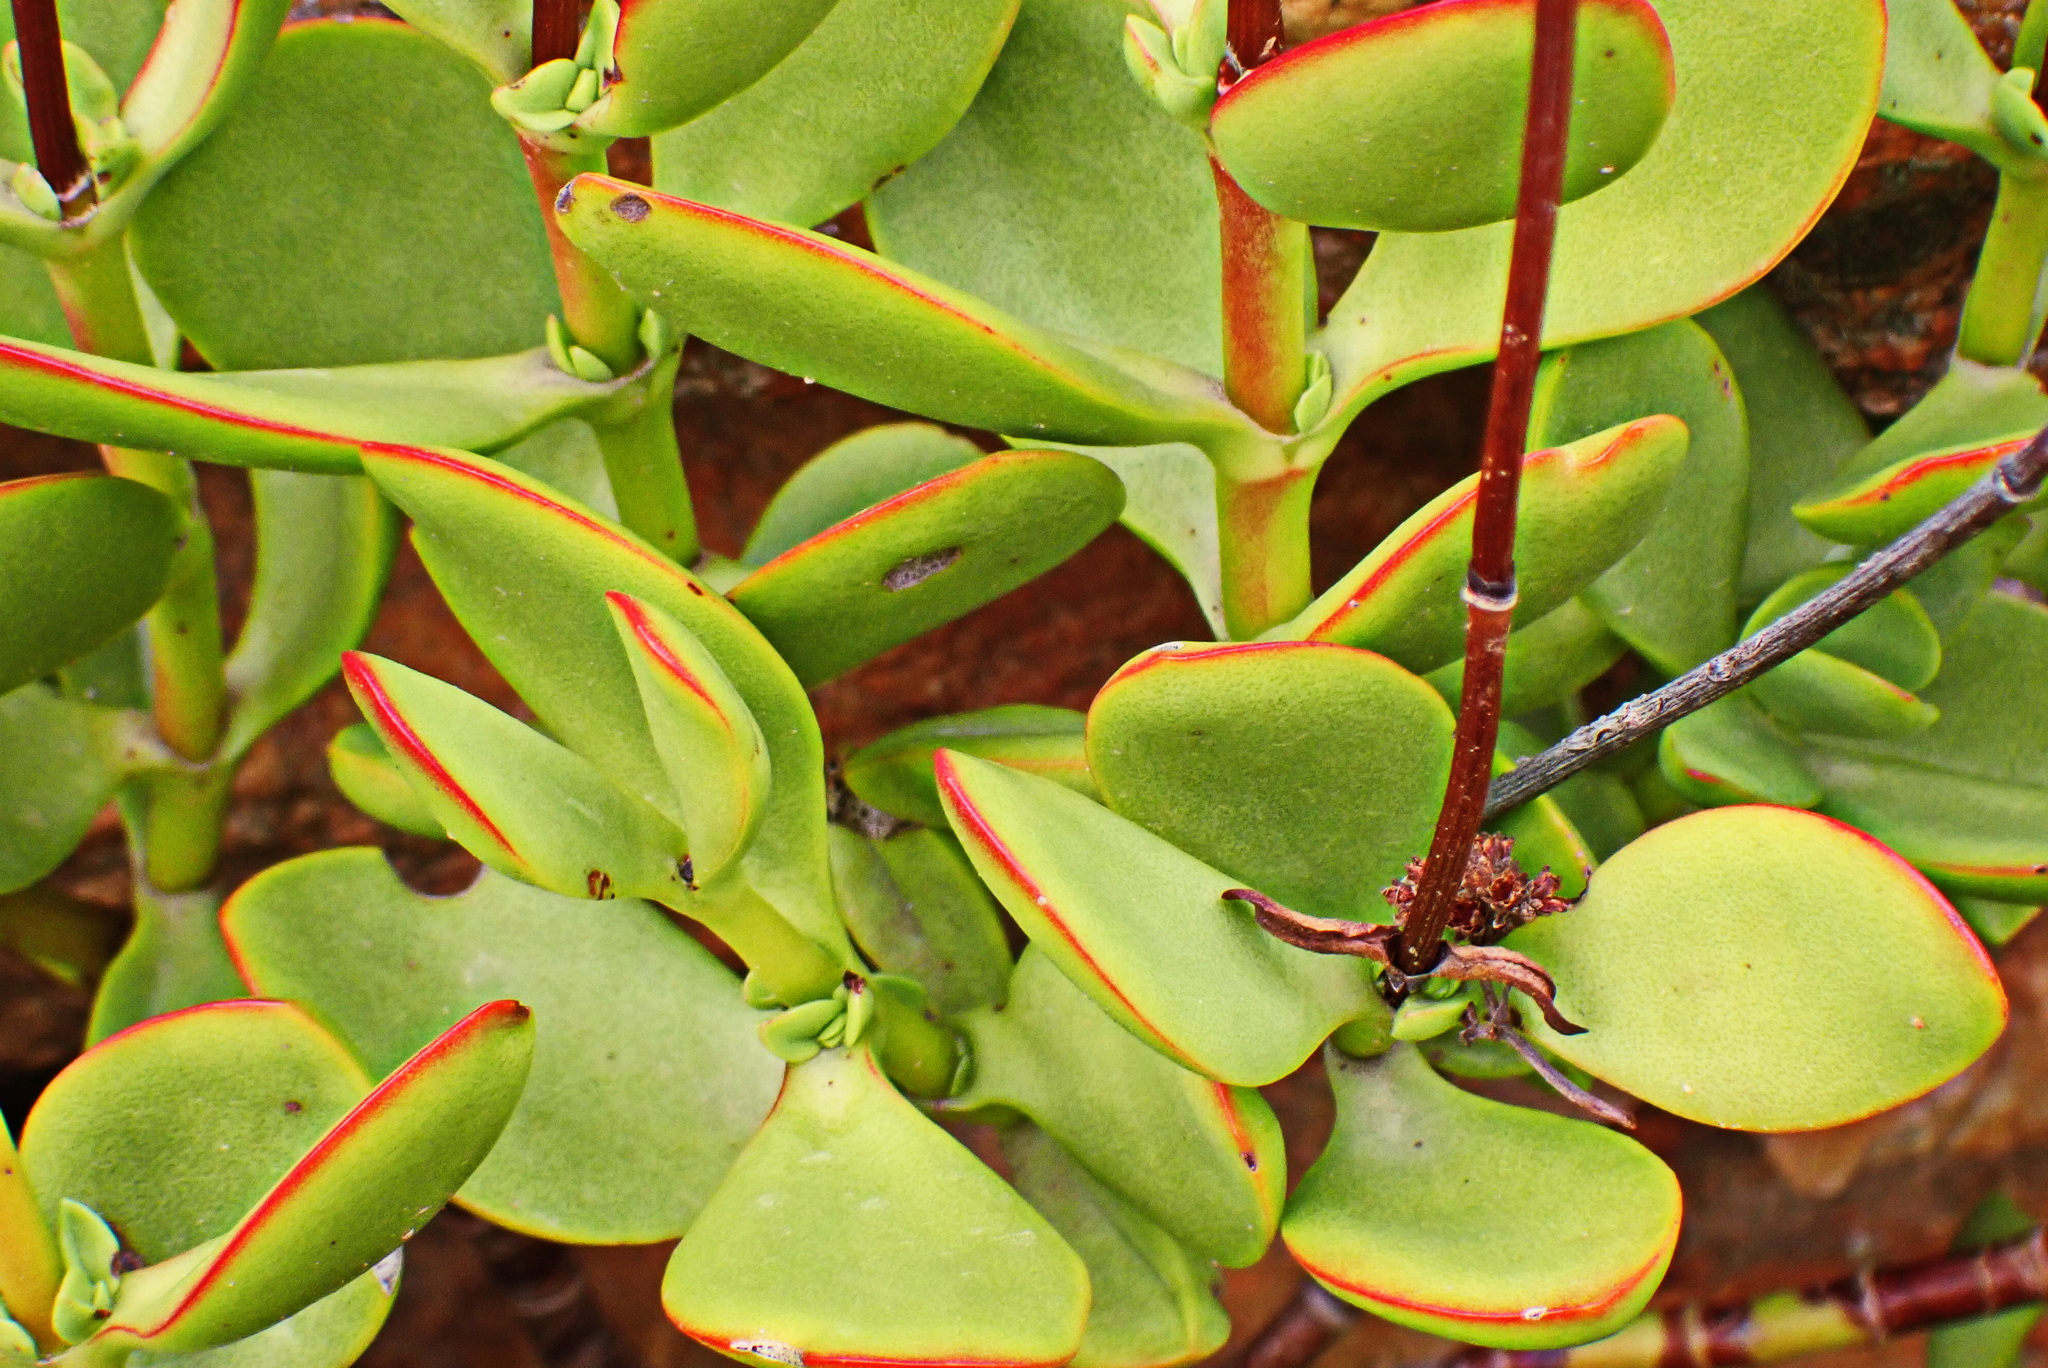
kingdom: Plantae
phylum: Tracheophyta
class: Magnoliopsida
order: Saxifragales
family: Crassulaceae
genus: Crassula
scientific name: Crassula cultrata
